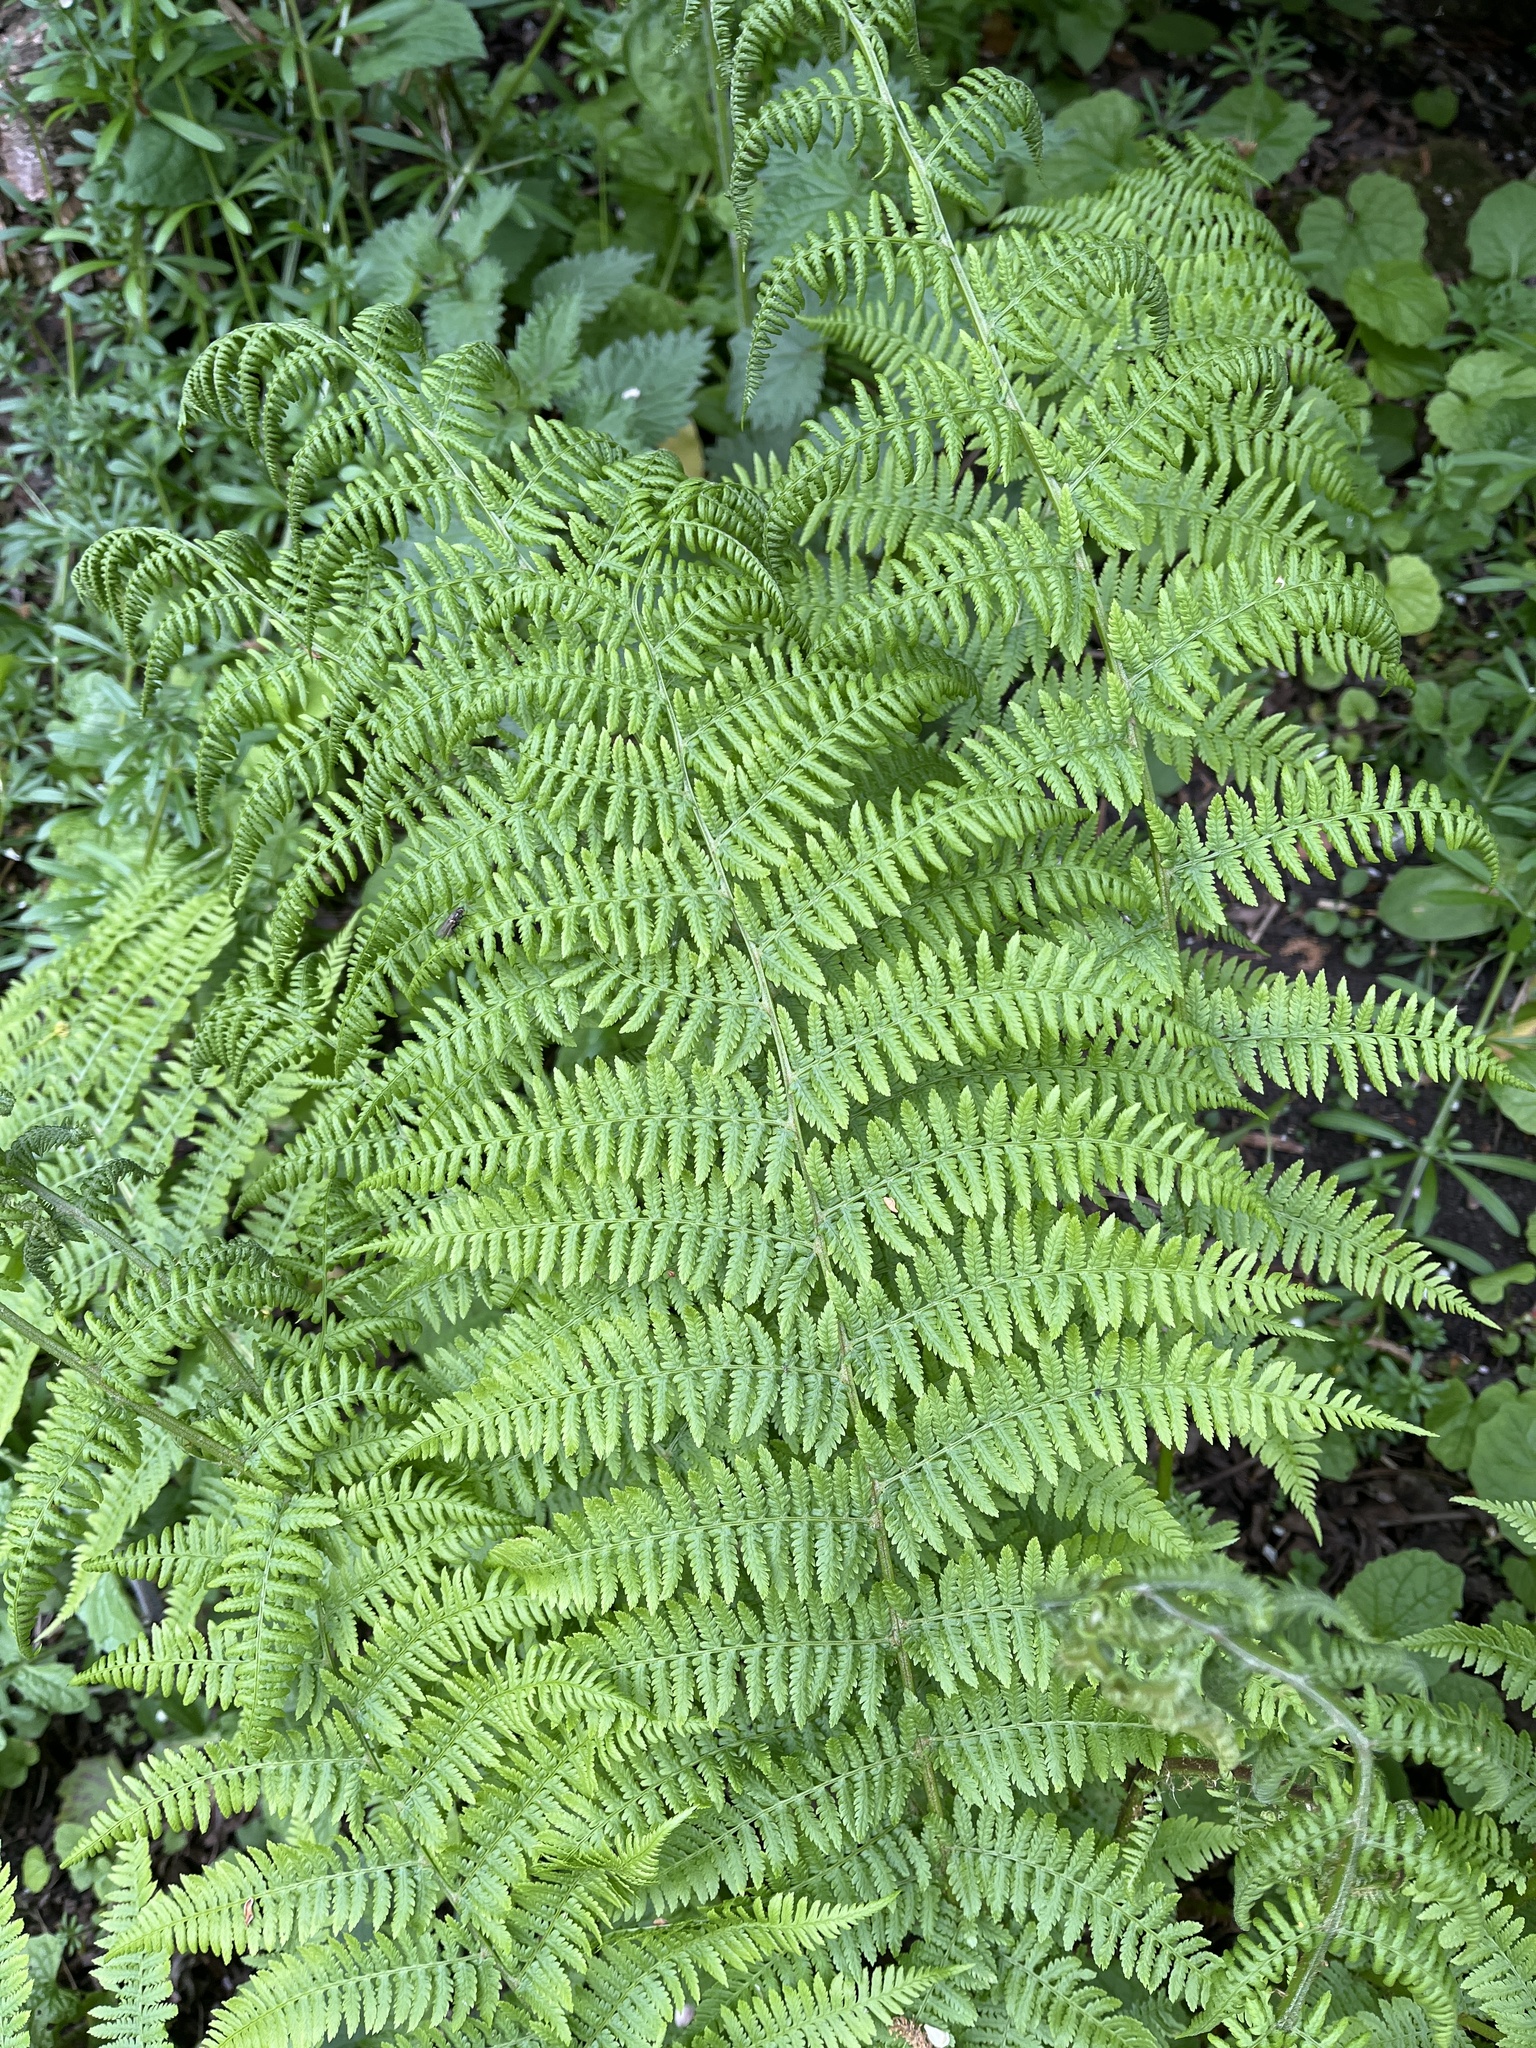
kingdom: Plantae
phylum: Tracheophyta
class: Polypodiopsida
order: Polypodiales
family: Athyriaceae
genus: Athyrium
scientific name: Athyrium filix-femina
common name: Lady fern
